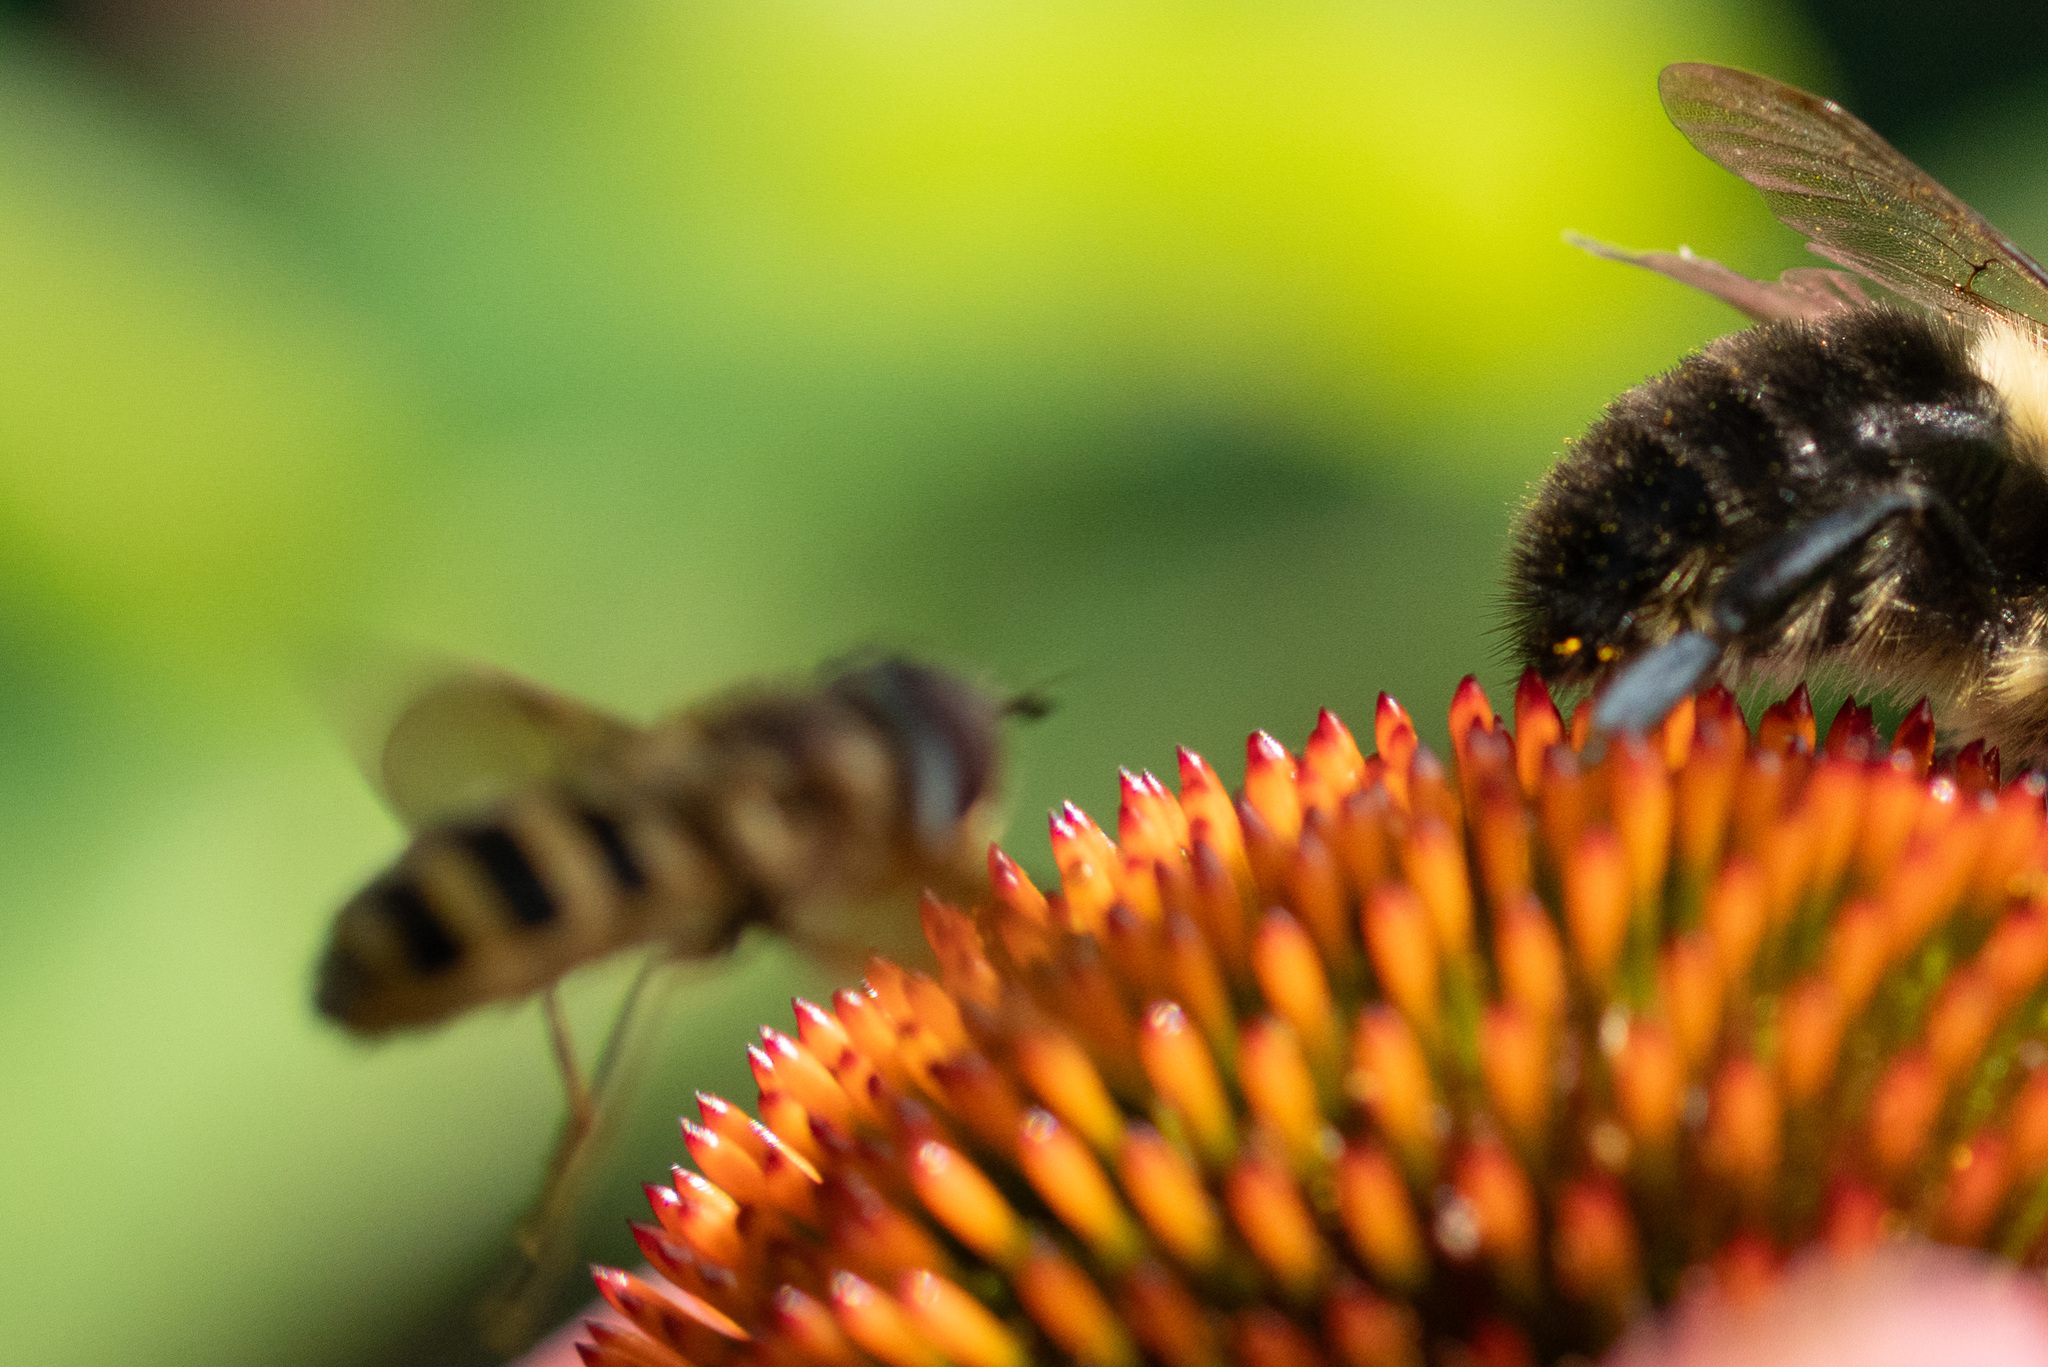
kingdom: Animalia
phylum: Arthropoda
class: Insecta
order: Diptera
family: Syrphidae
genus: Epistrophe
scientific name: Epistrophe grossulariae
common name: Black-horned smoothtail
